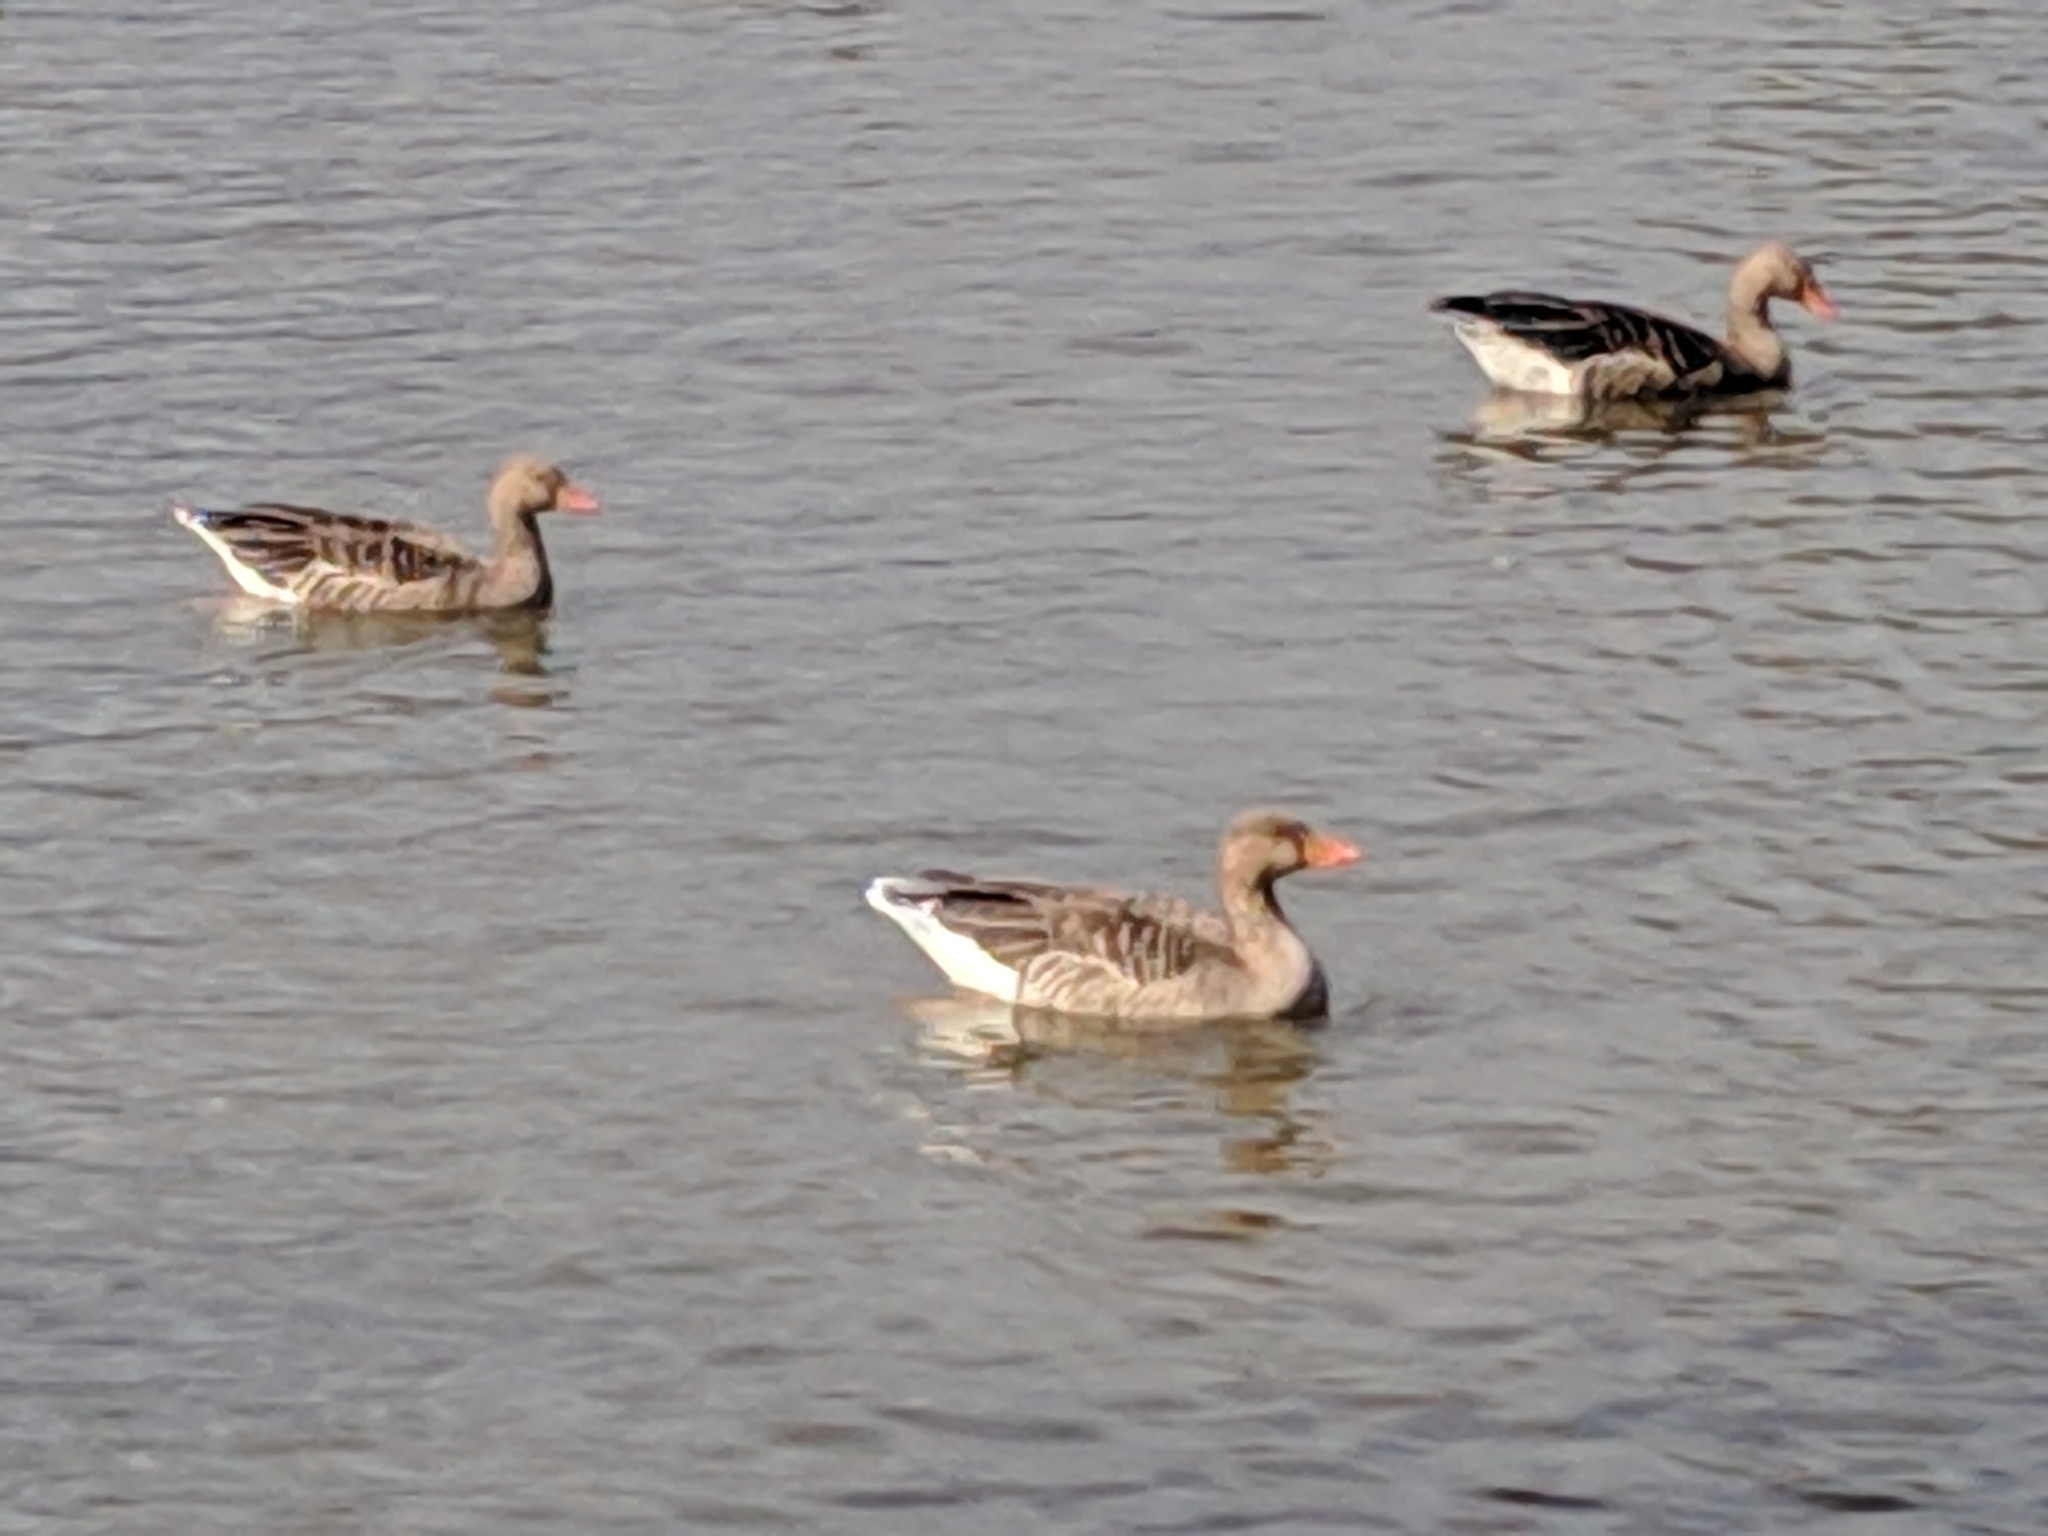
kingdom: Animalia
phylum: Chordata
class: Aves
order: Anseriformes
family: Anatidae
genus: Anser
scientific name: Anser anser
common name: Greylag goose
